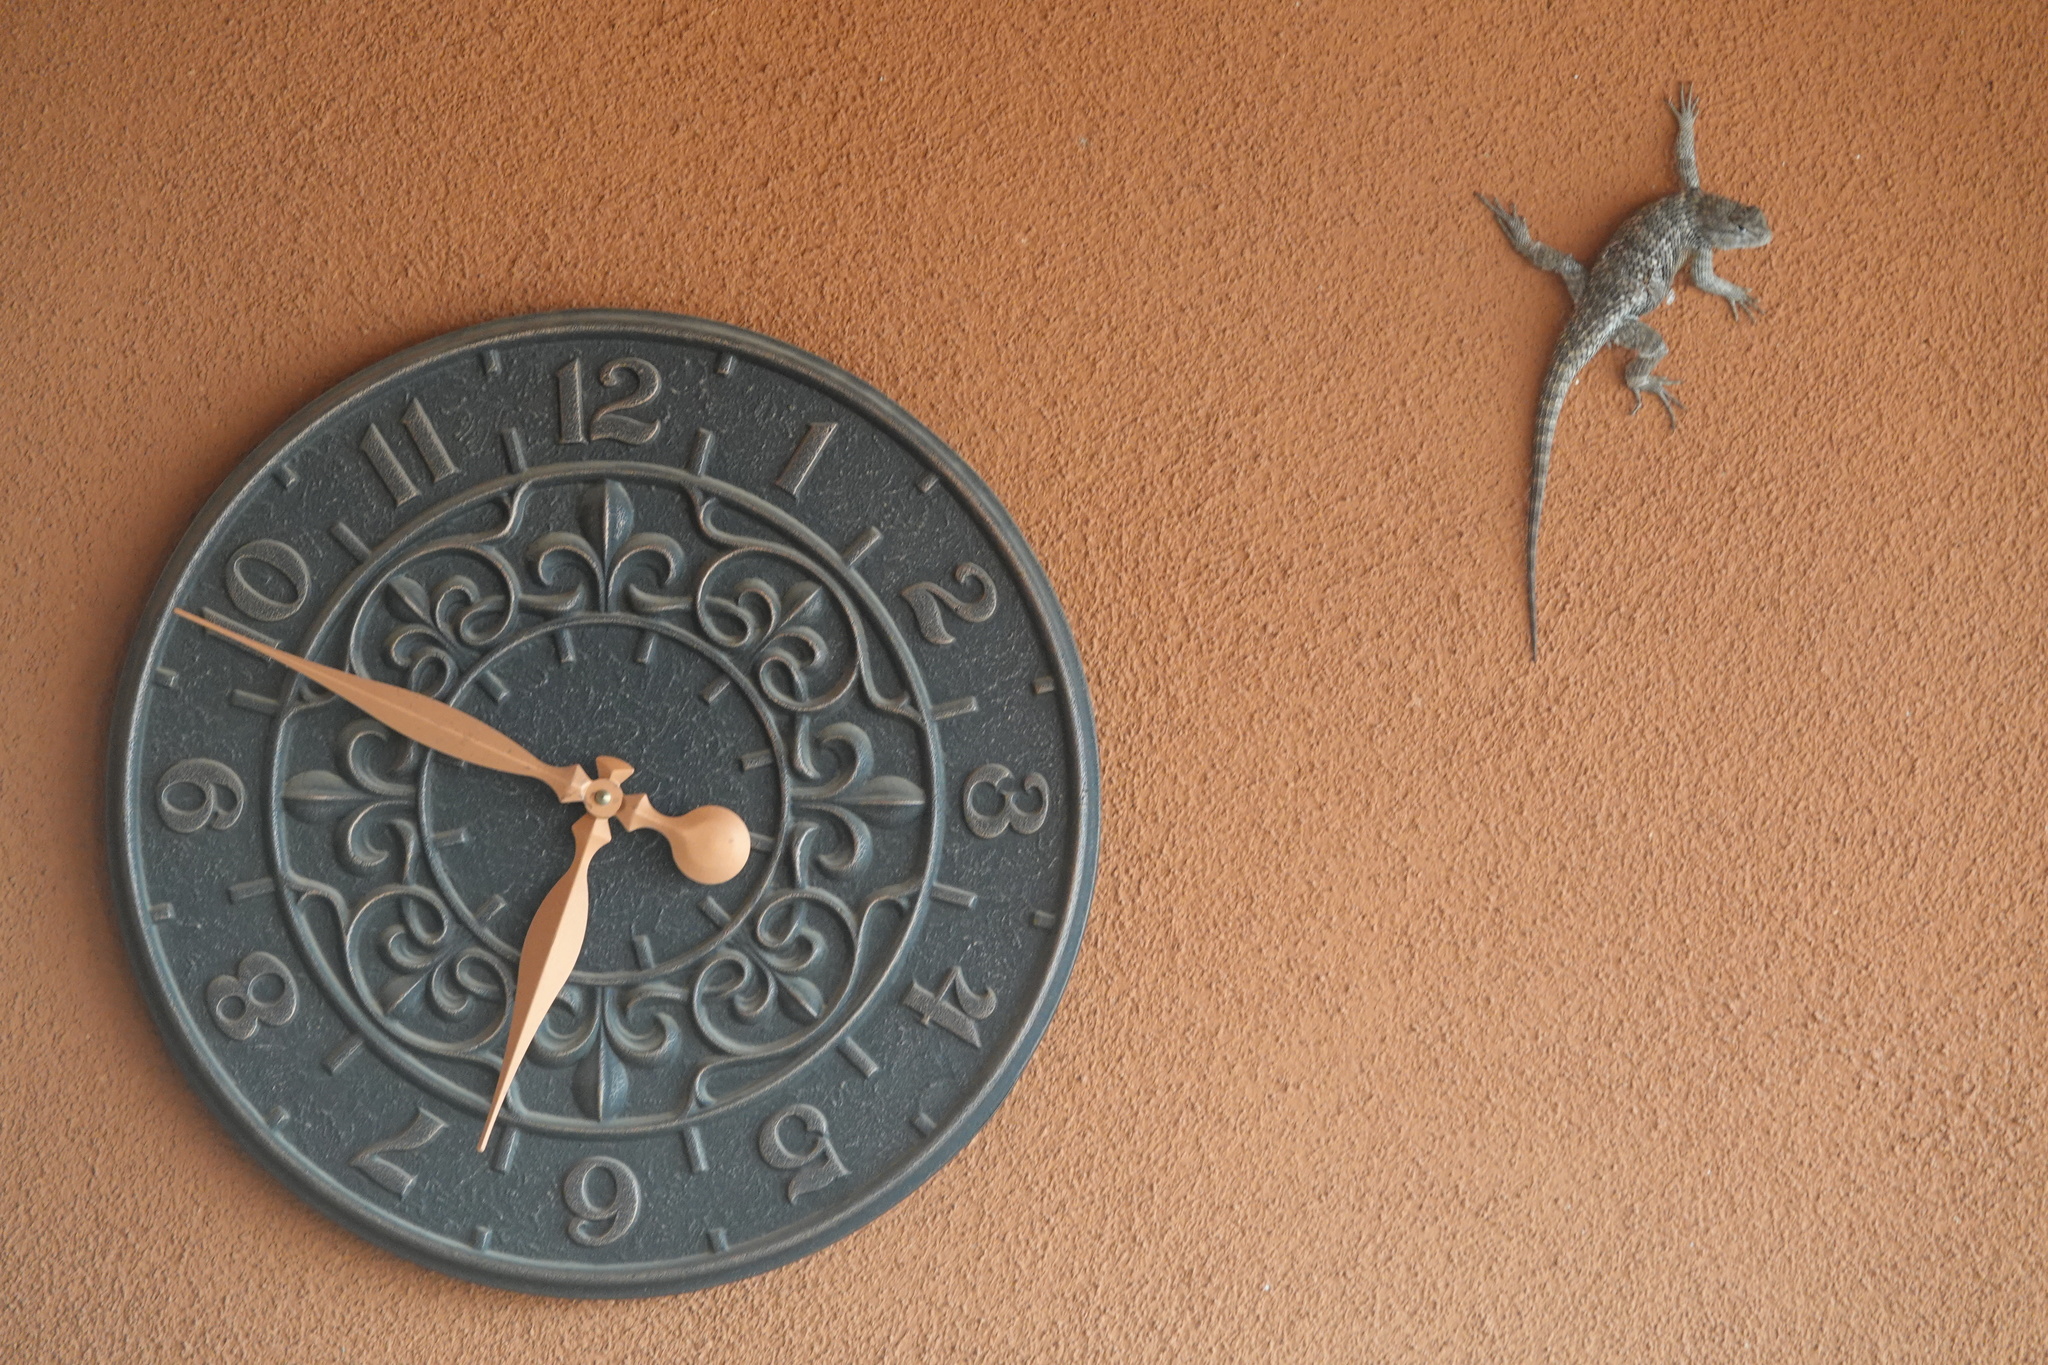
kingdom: Animalia
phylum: Chordata
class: Squamata
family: Phrynosomatidae
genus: Sceloporus
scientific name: Sceloporus uniformis
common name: Yellow-backed spiny lizard
